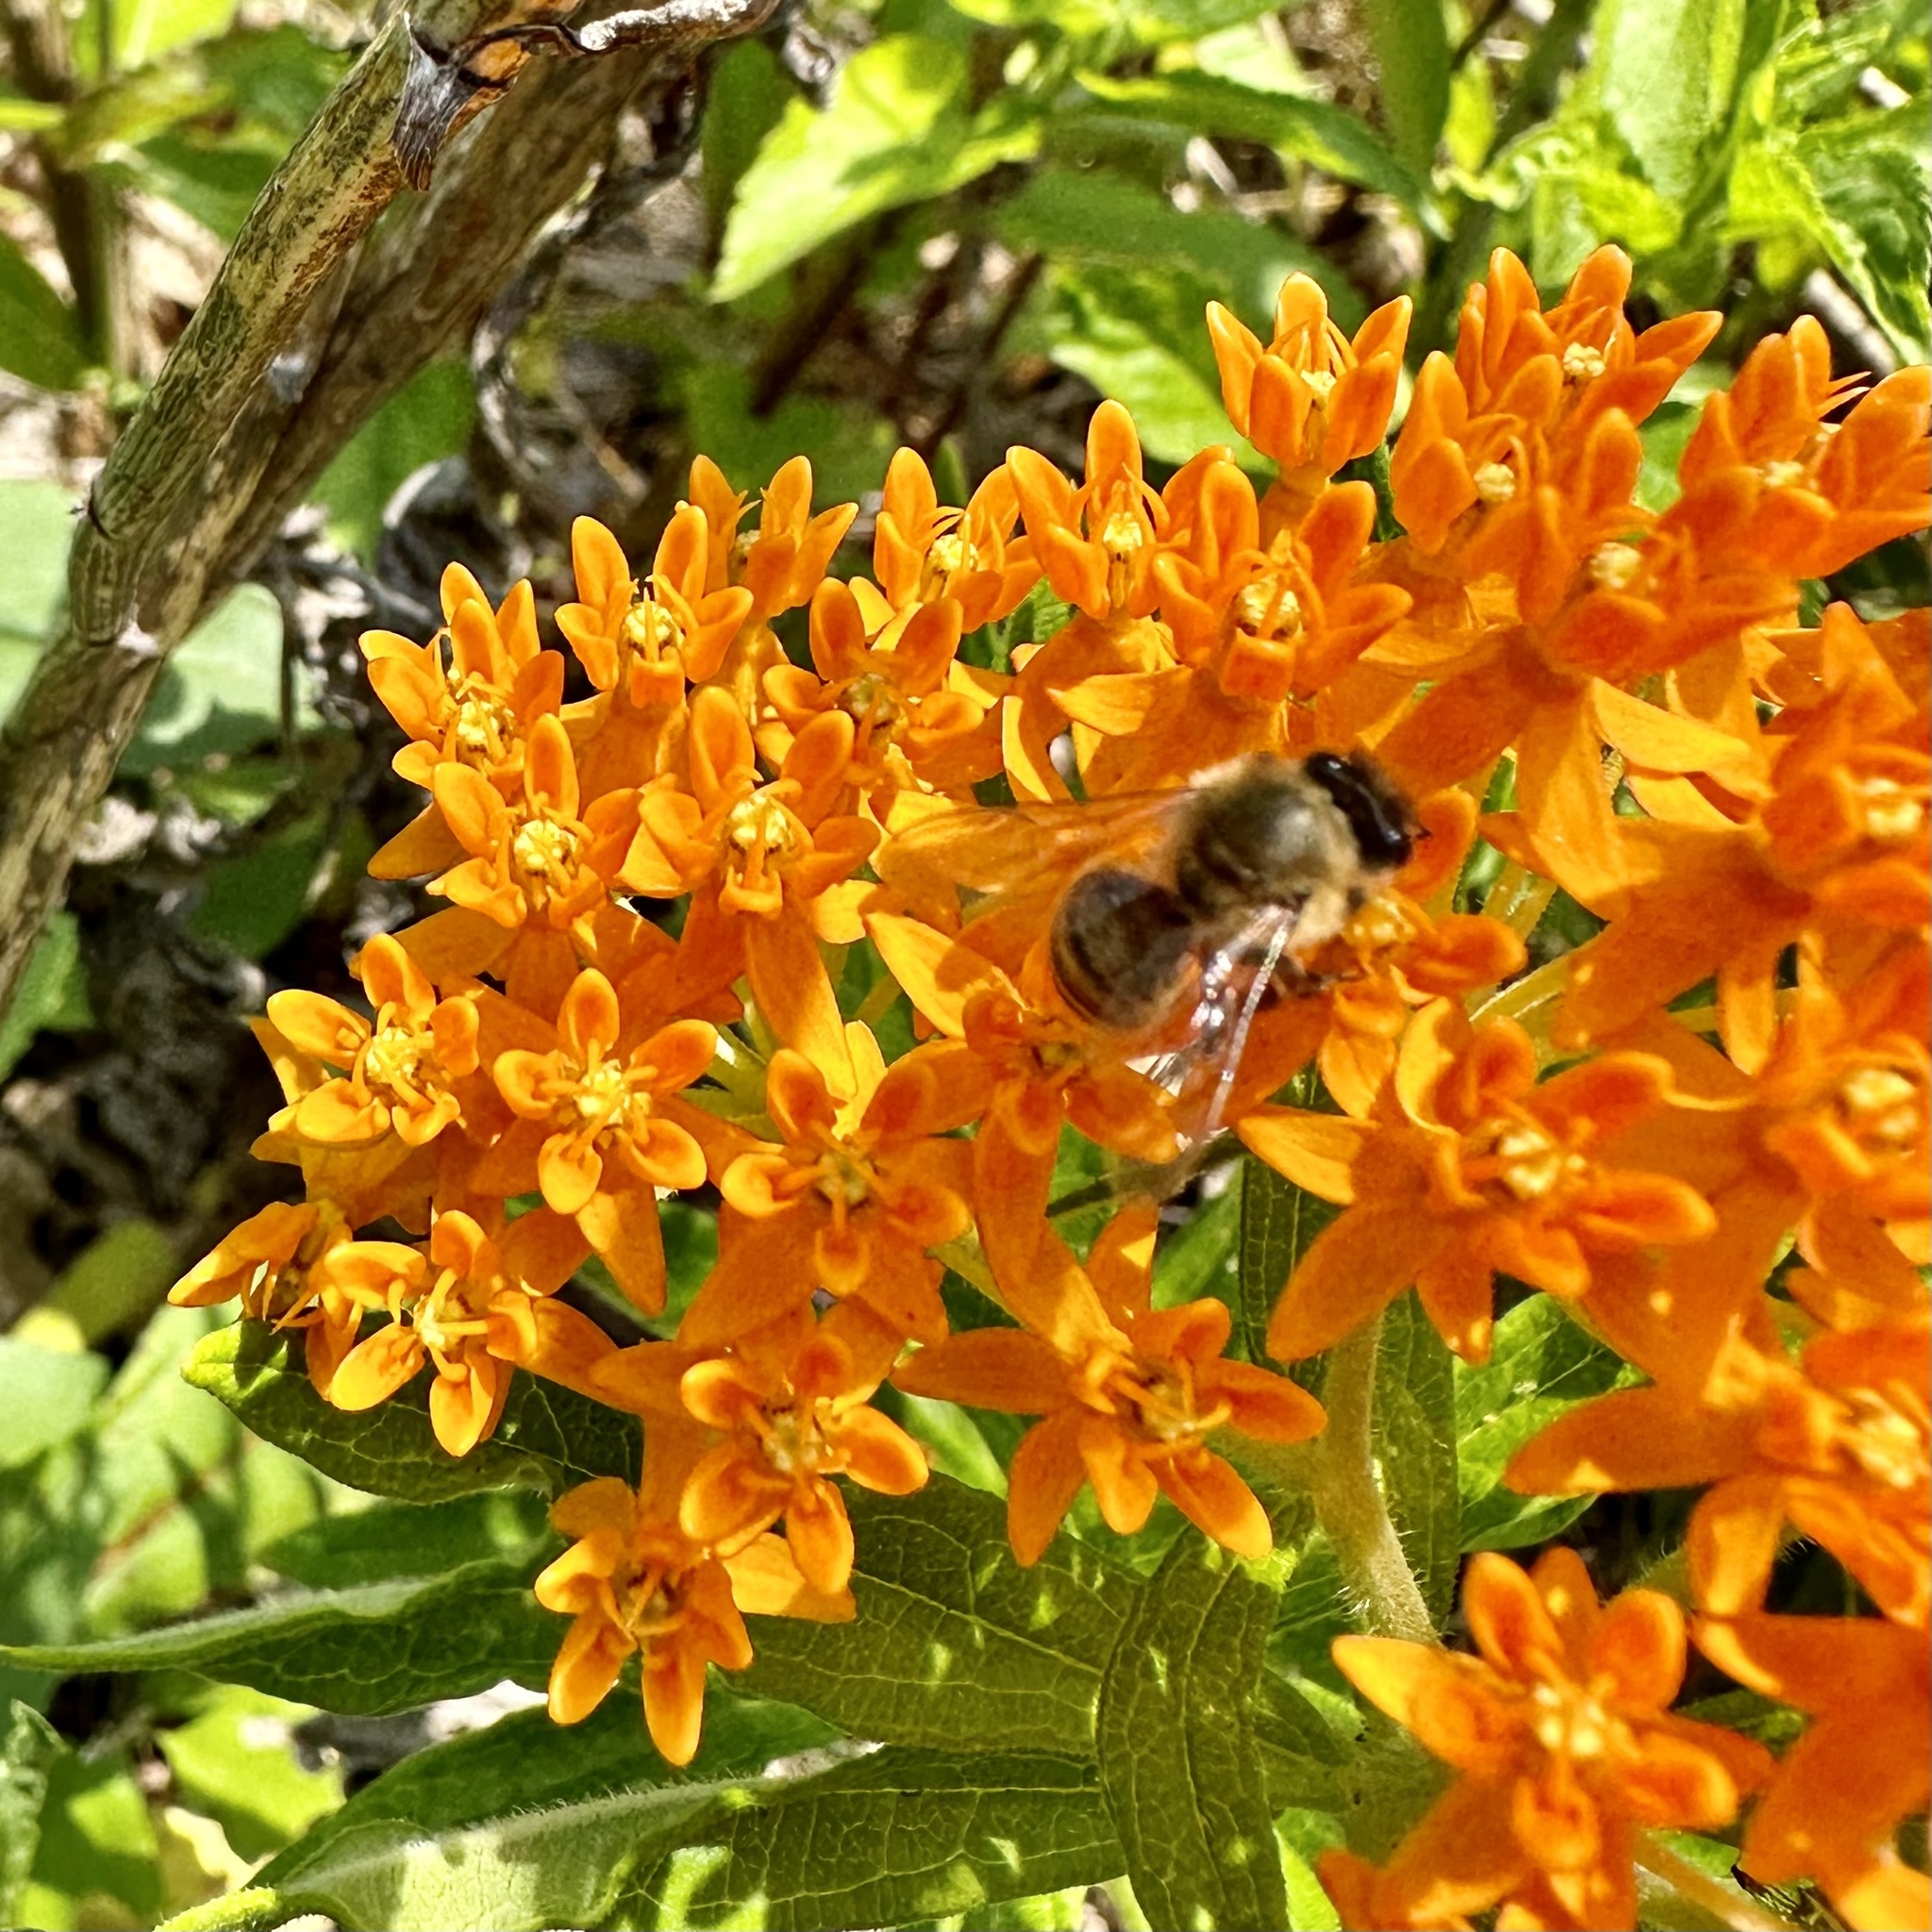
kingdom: Animalia
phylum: Arthropoda
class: Insecta
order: Hymenoptera
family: Apidae
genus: Apis
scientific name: Apis mellifera
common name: Honey bee
